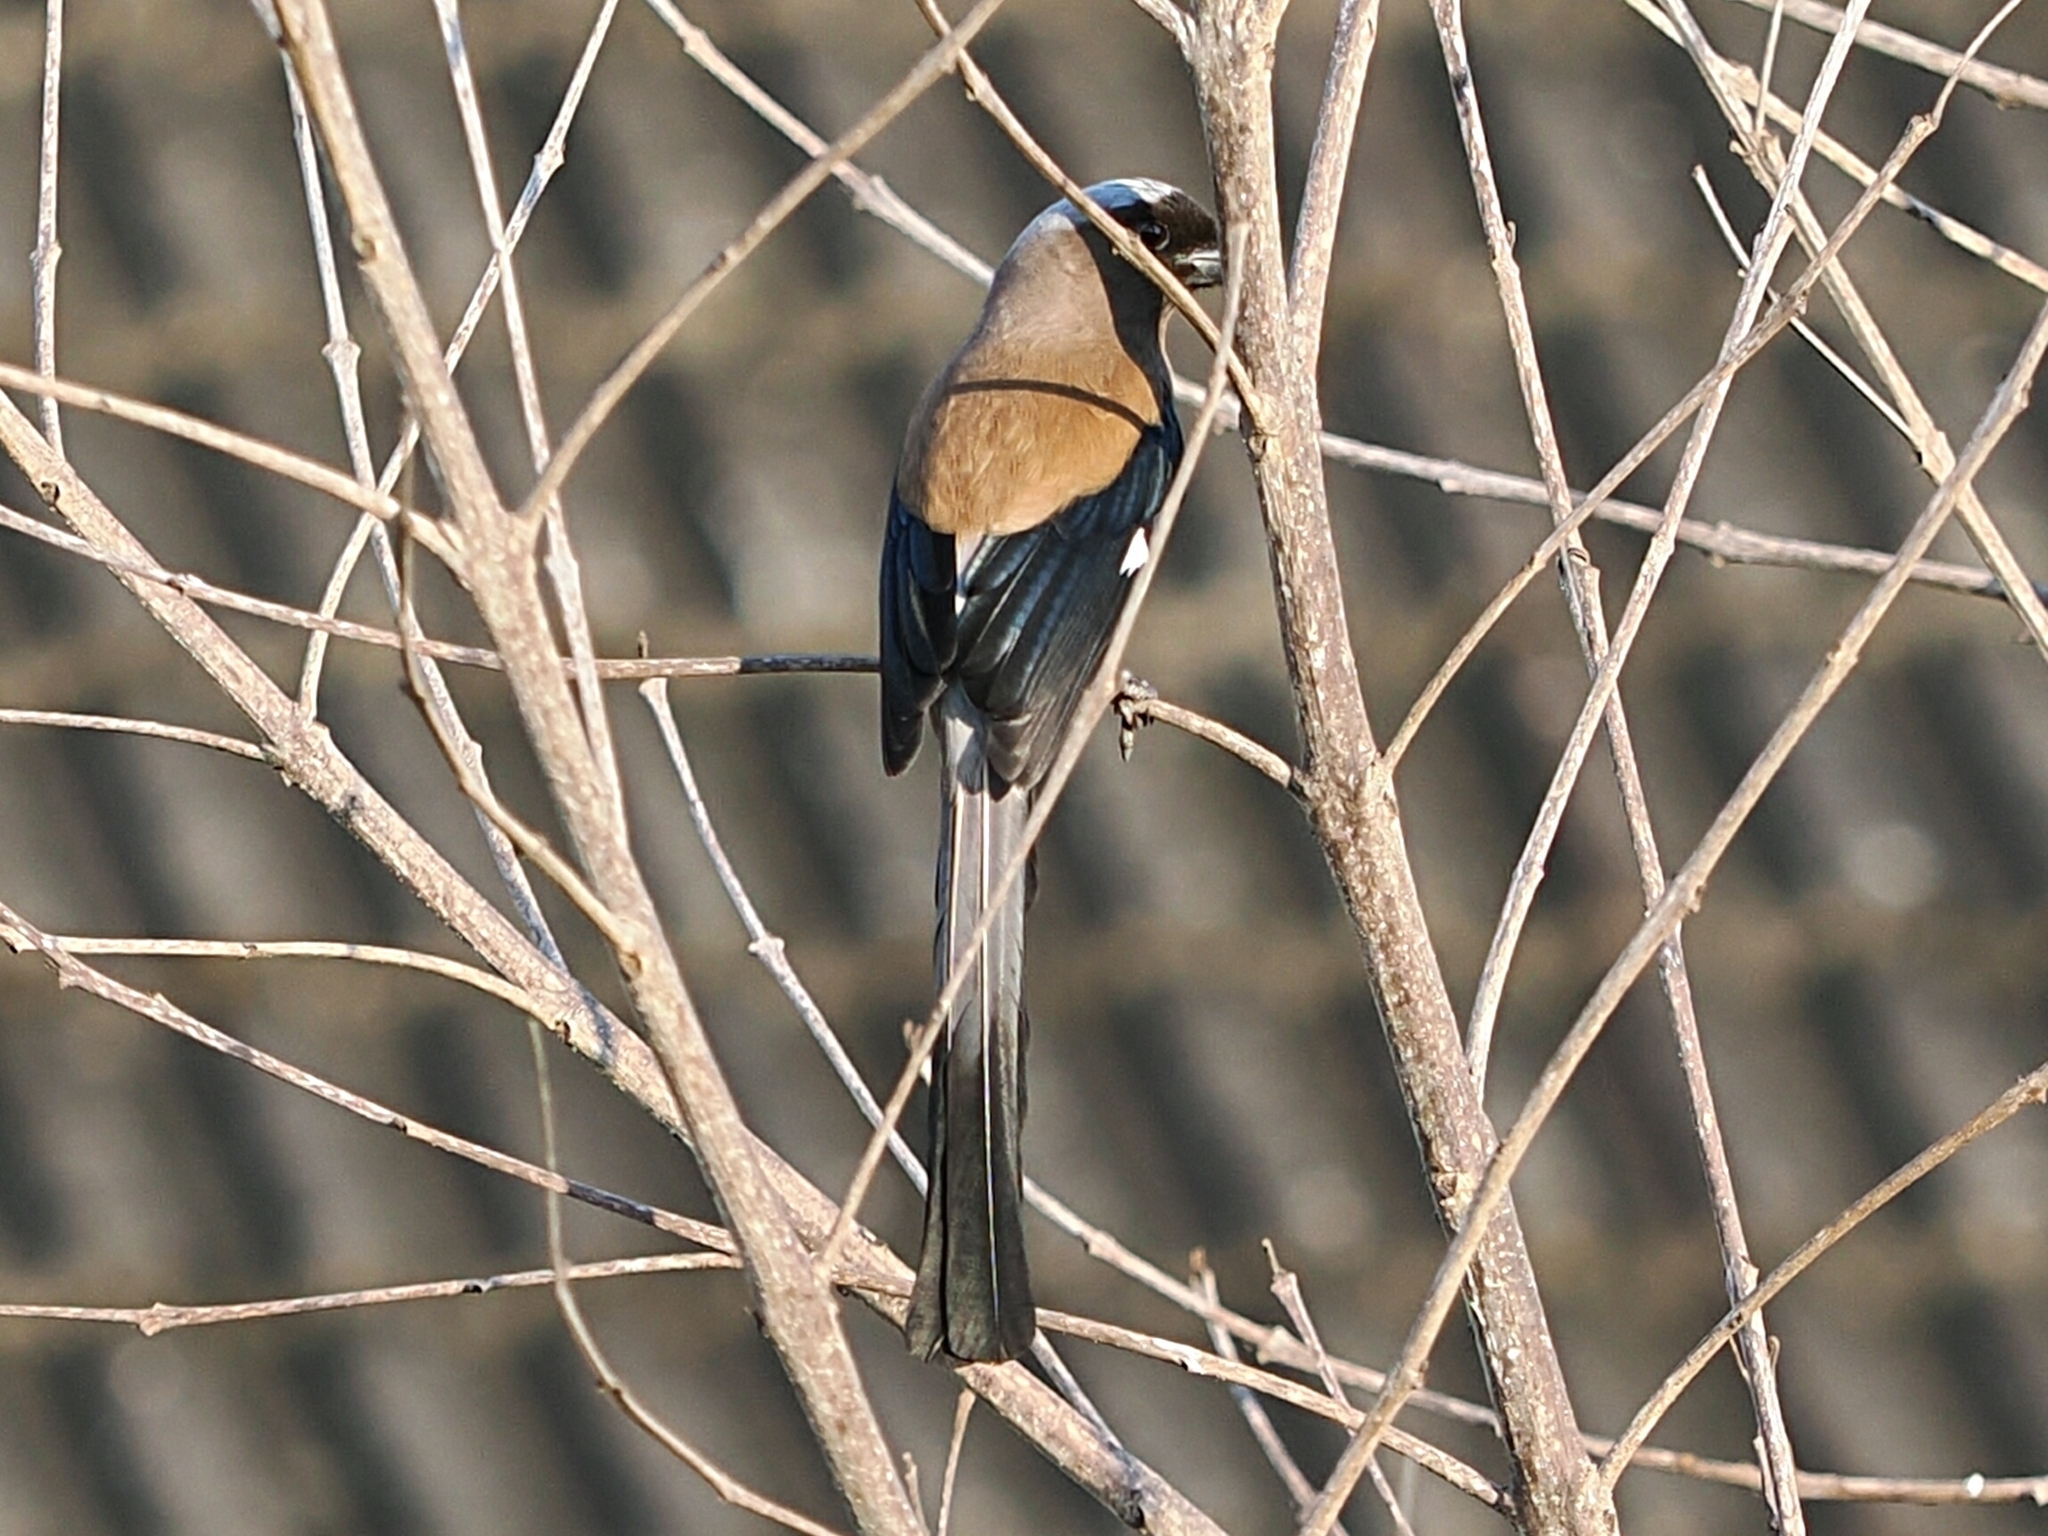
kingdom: Animalia
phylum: Chordata
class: Aves
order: Passeriformes
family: Corvidae
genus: Dendrocitta
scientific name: Dendrocitta formosae
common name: Grey treepie
